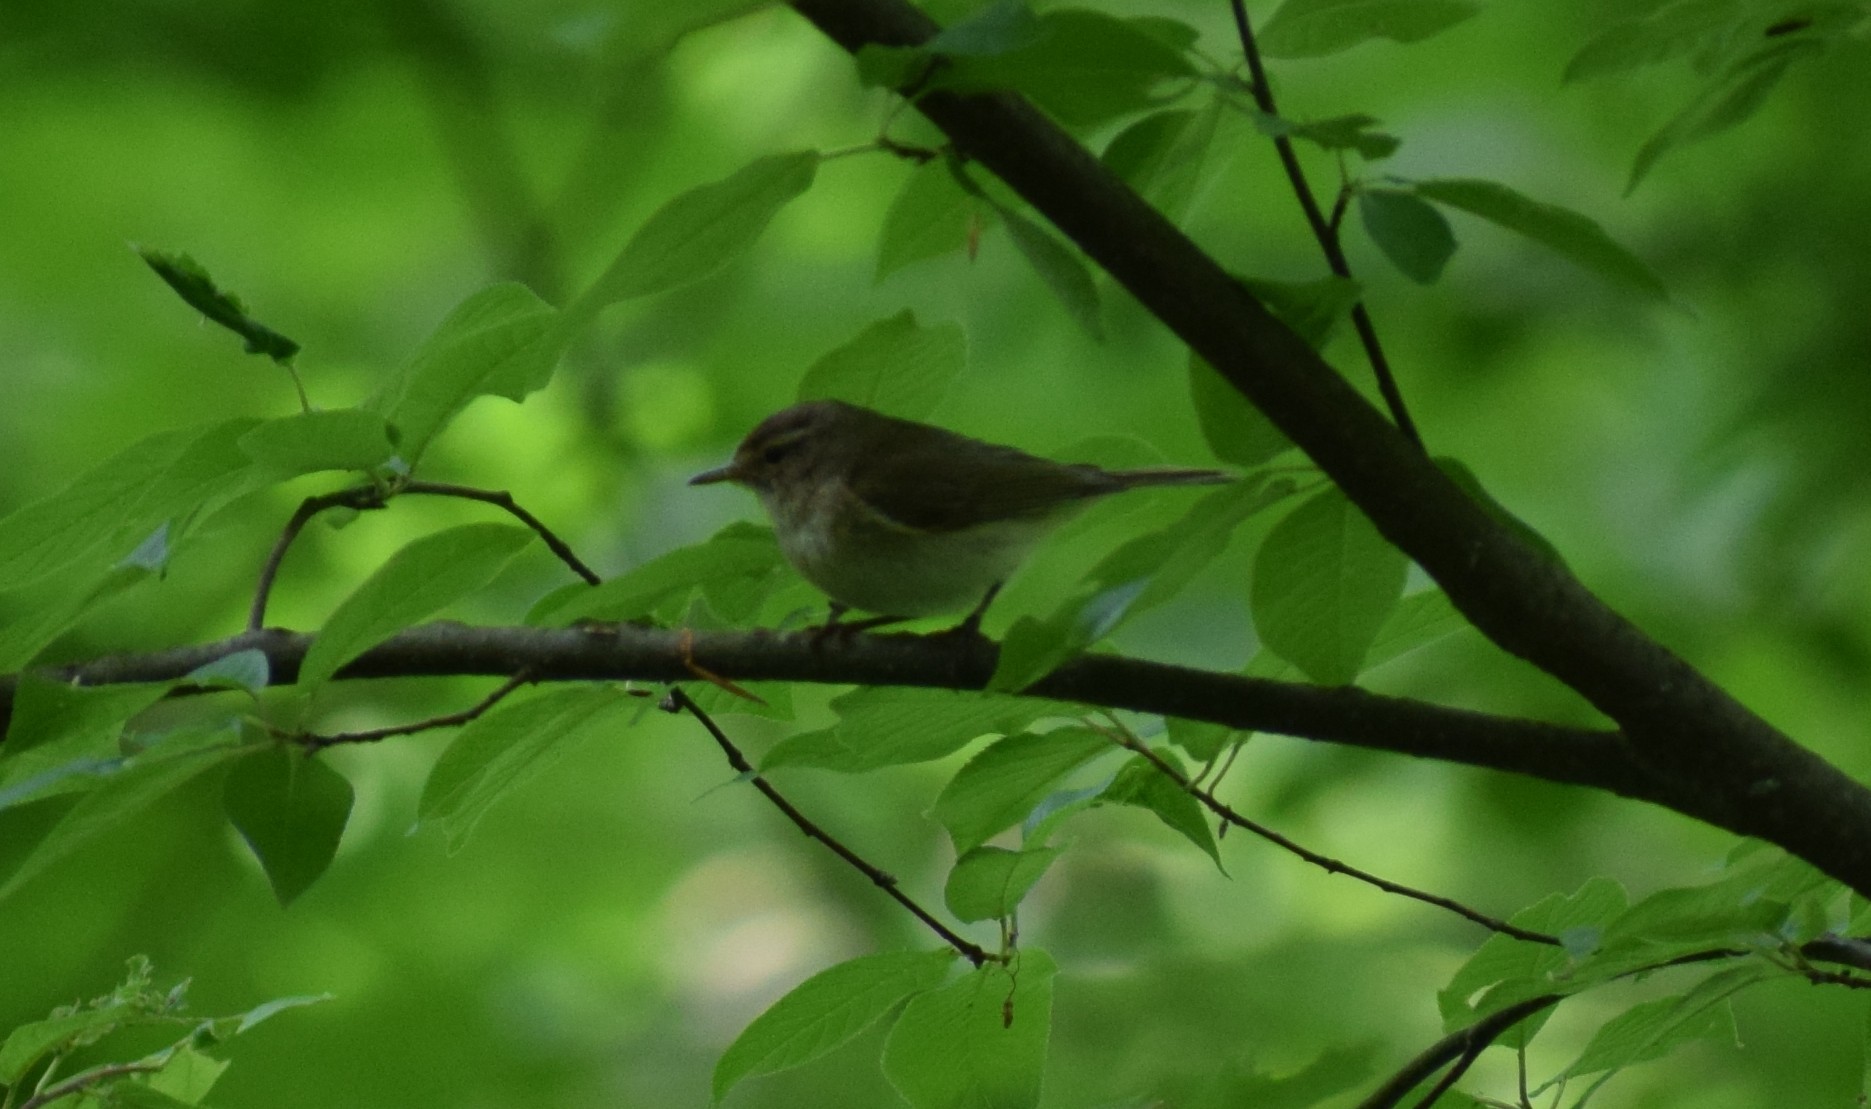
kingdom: Animalia
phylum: Chordata
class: Aves
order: Passeriformes
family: Phylloscopidae
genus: Phylloscopus
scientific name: Phylloscopus collybita
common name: Common chiffchaff
